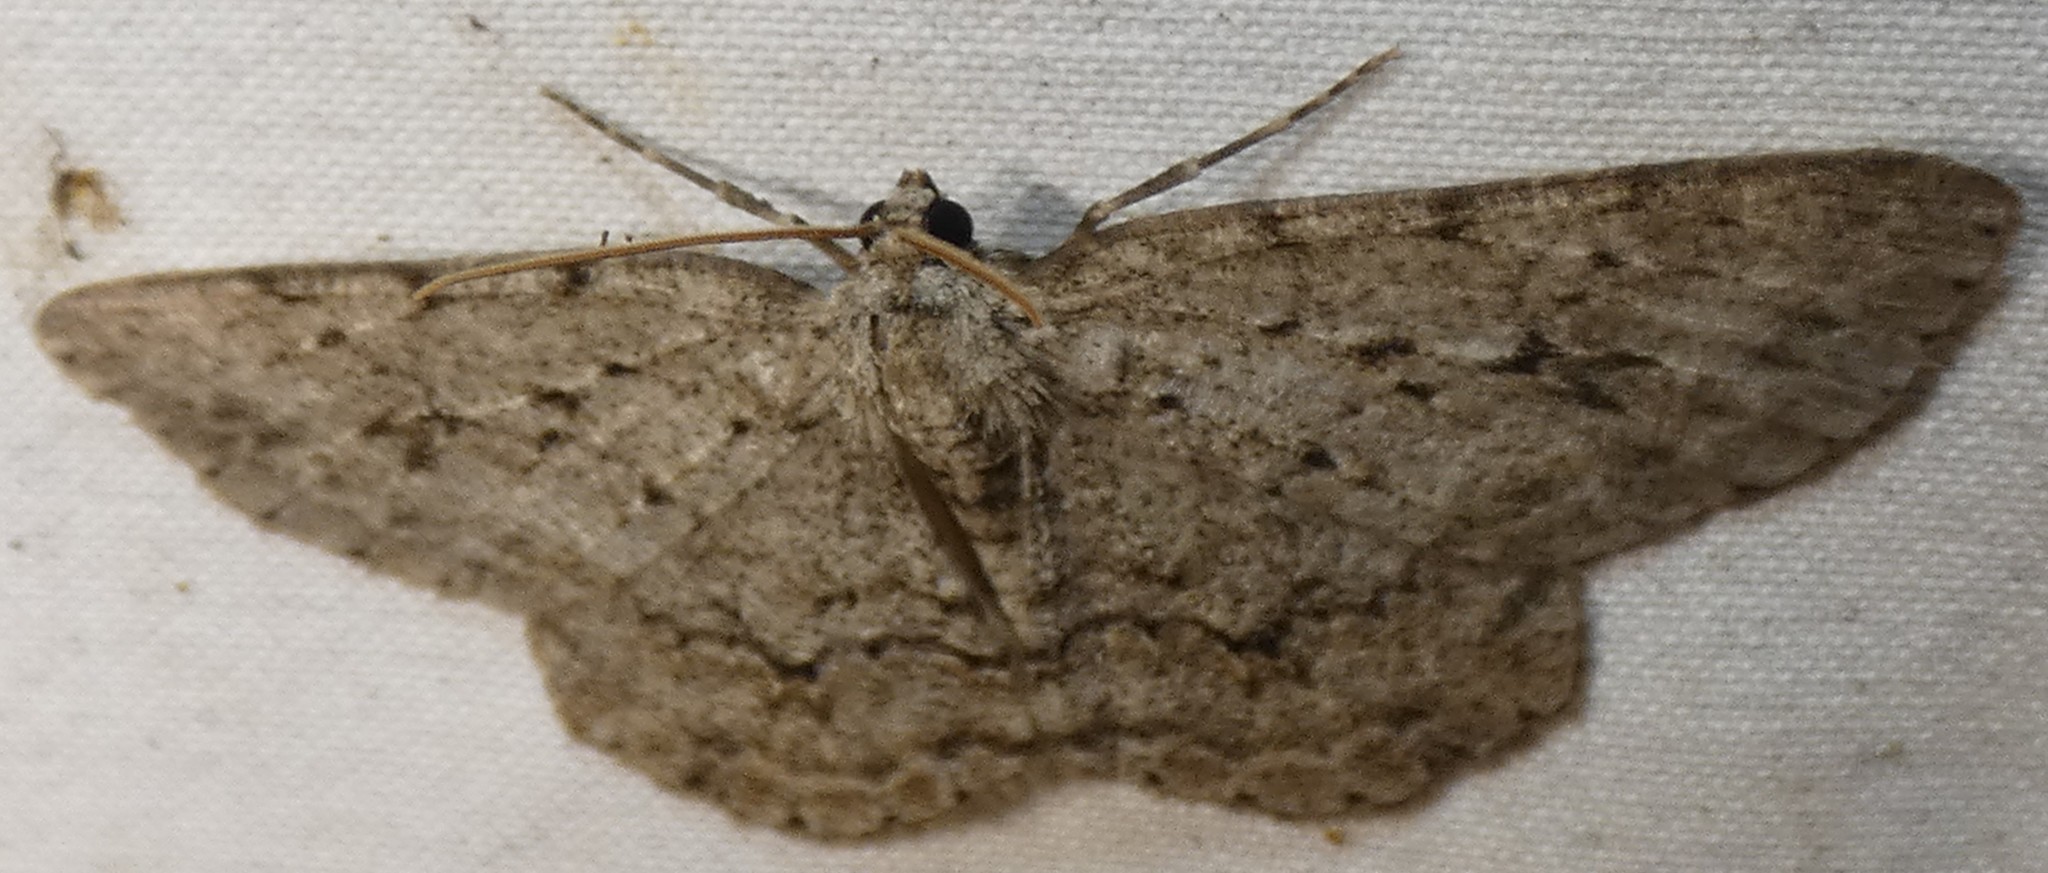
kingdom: Animalia
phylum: Arthropoda
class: Insecta
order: Lepidoptera
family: Geometridae
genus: Ectropis
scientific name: Ectropis crepuscularia
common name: Engrailed
